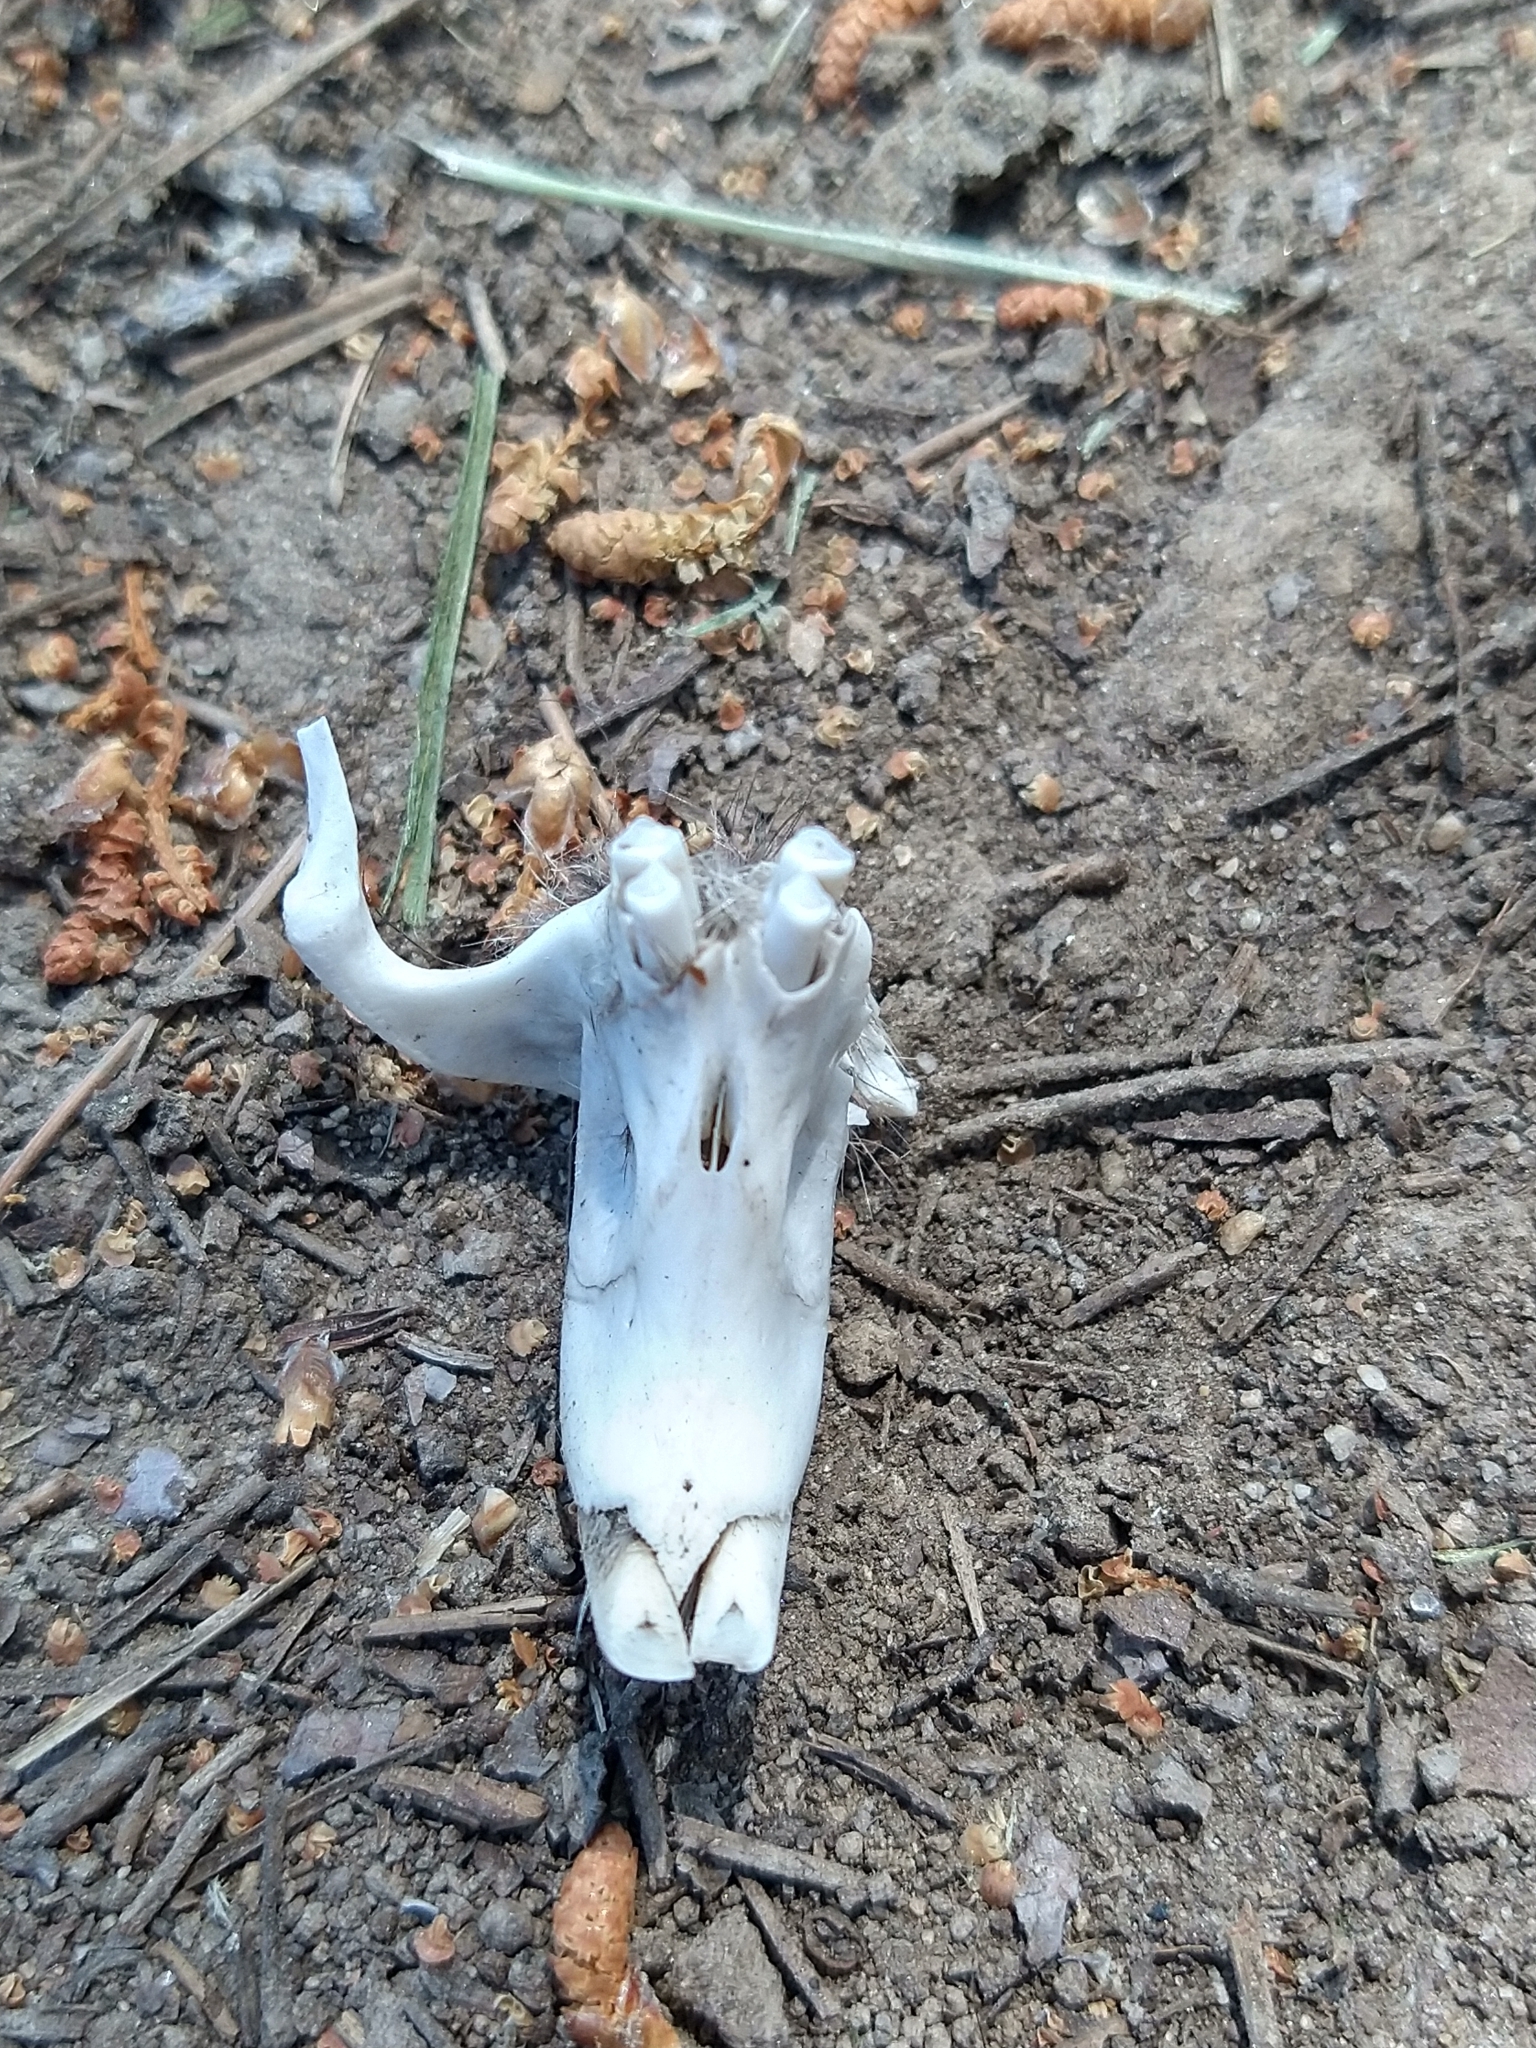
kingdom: Animalia
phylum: Chordata
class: Mammalia
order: Rodentia
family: Geomyidae
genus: Thomomys
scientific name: Thomomys bottae
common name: Botta's pocket gopher
